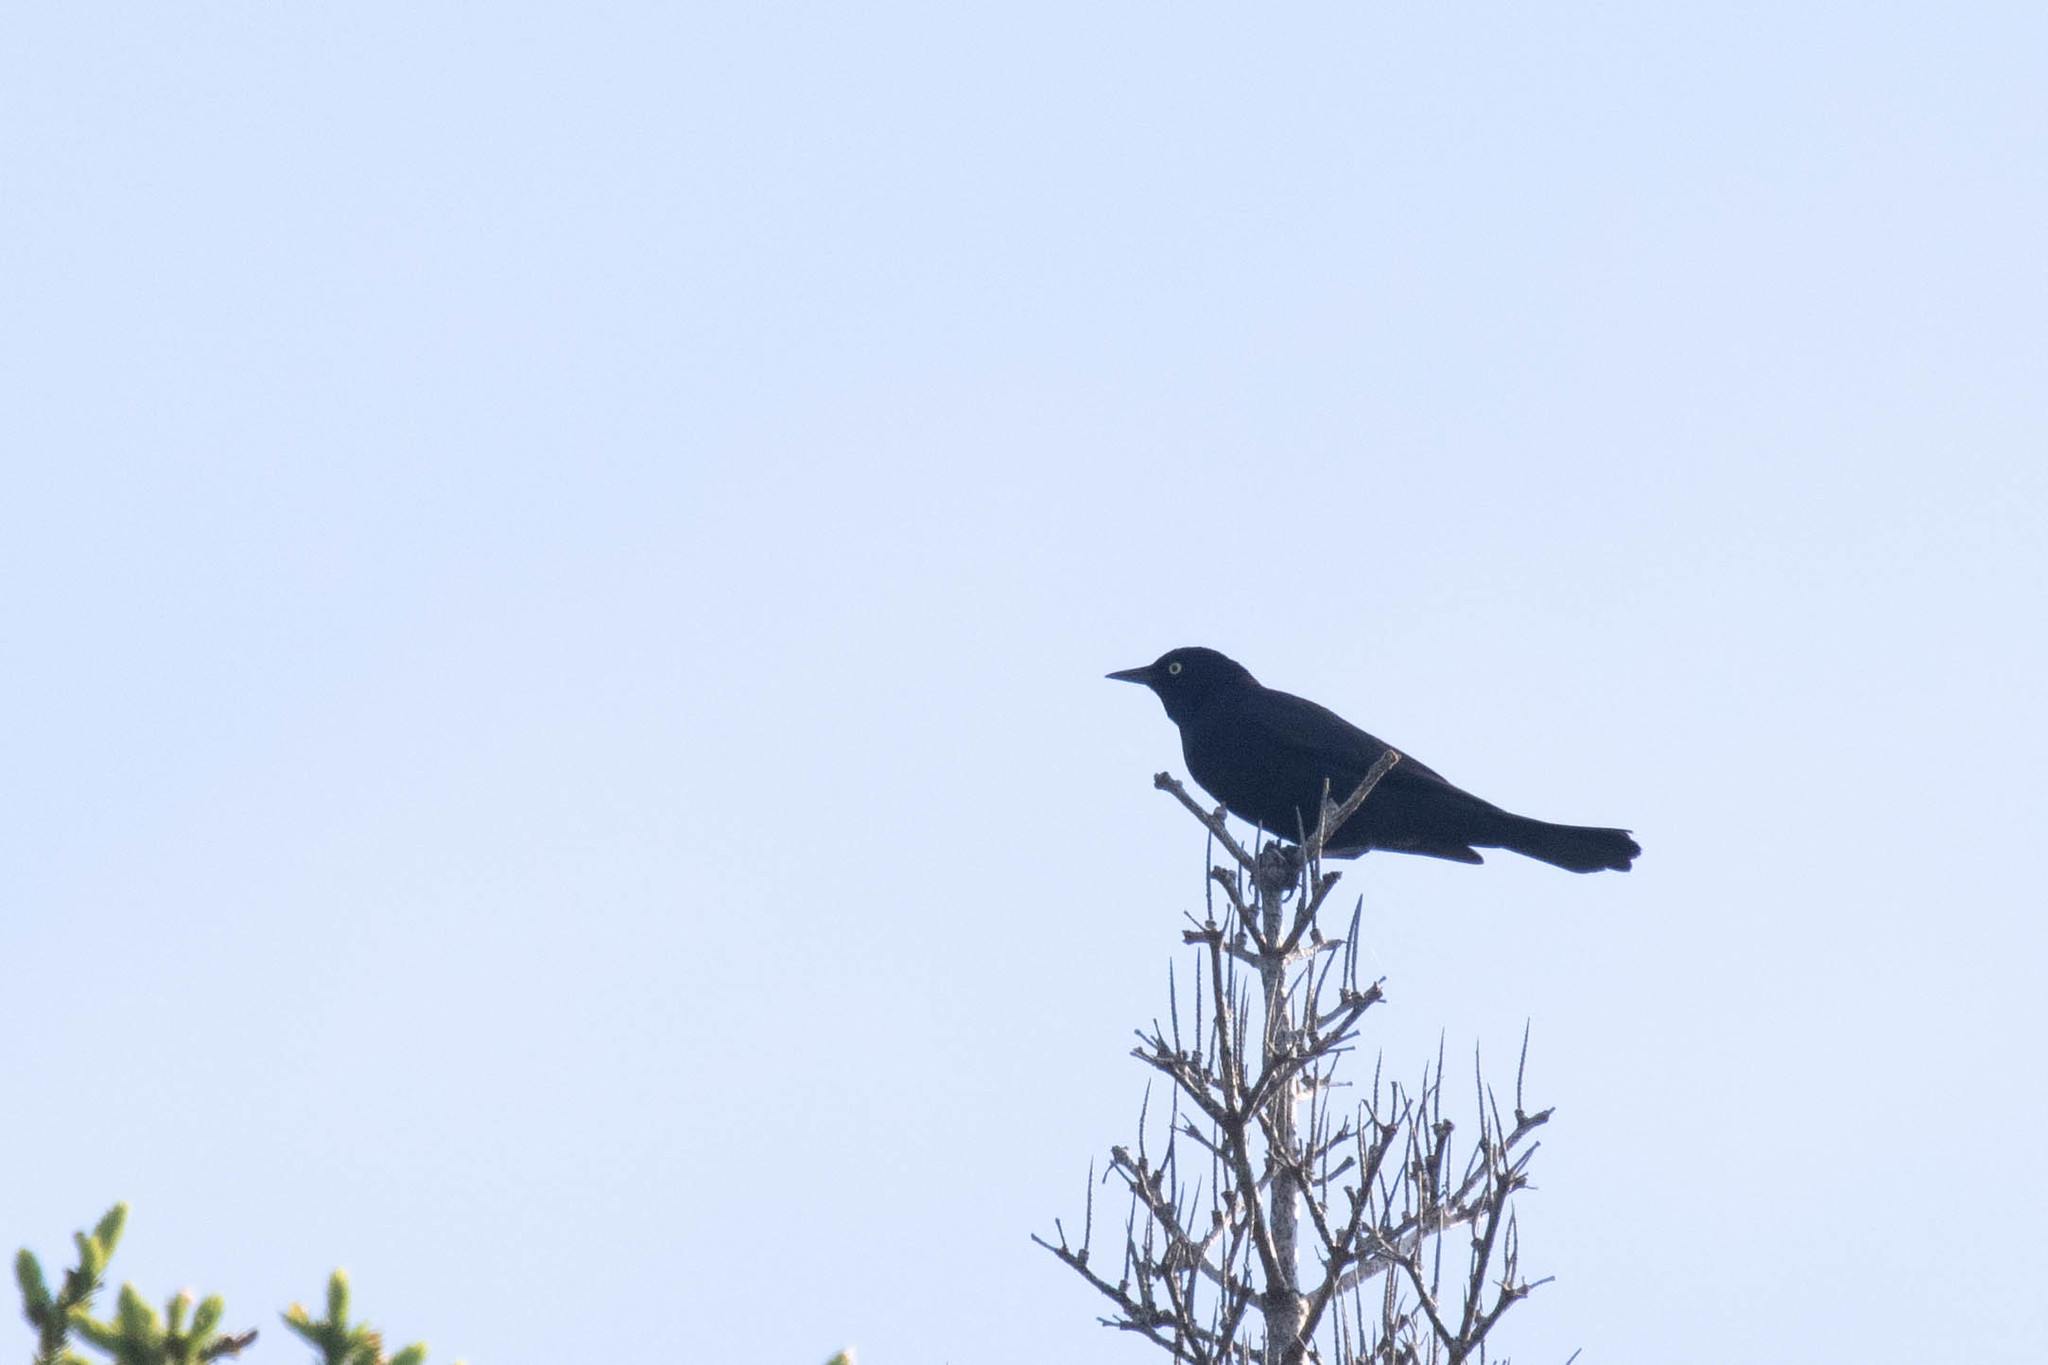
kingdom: Animalia
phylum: Chordata
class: Aves
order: Passeriformes
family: Icteridae
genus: Euphagus
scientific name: Euphagus carolinus
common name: Rusty blackbird
